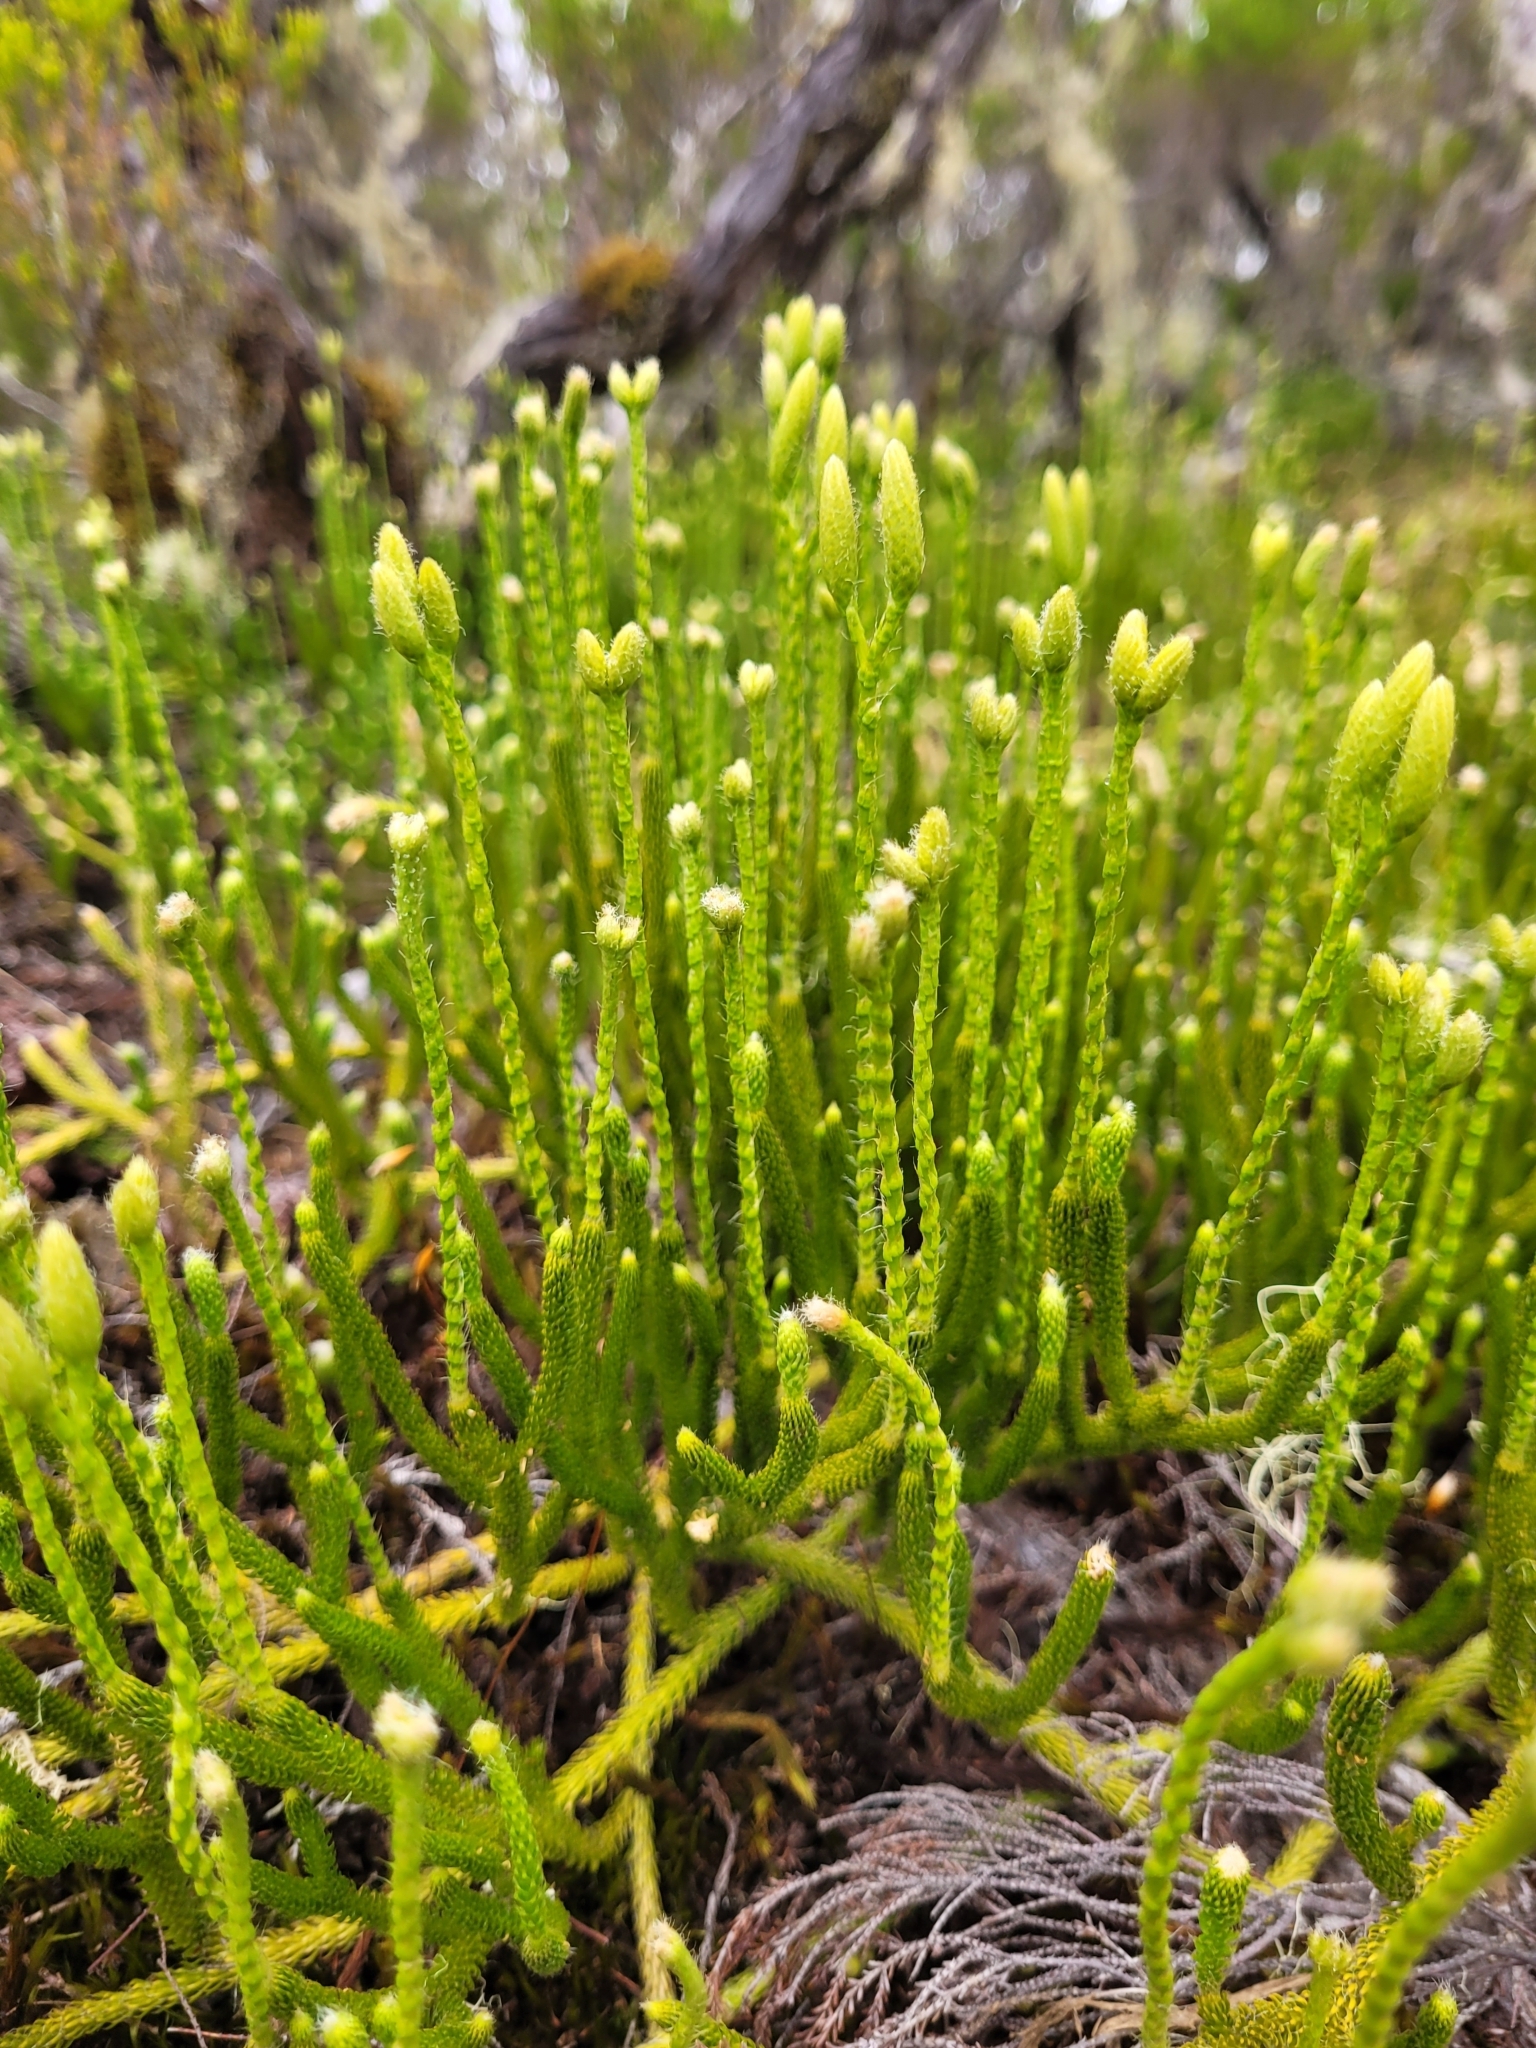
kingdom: Plantae
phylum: Tracheophyta
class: Lycopodiopsida
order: Lycopodiales
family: Lycopodiaceae
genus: Lycopodium
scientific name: Lycopodium clavatum
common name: Stag's-horn clubmoss
